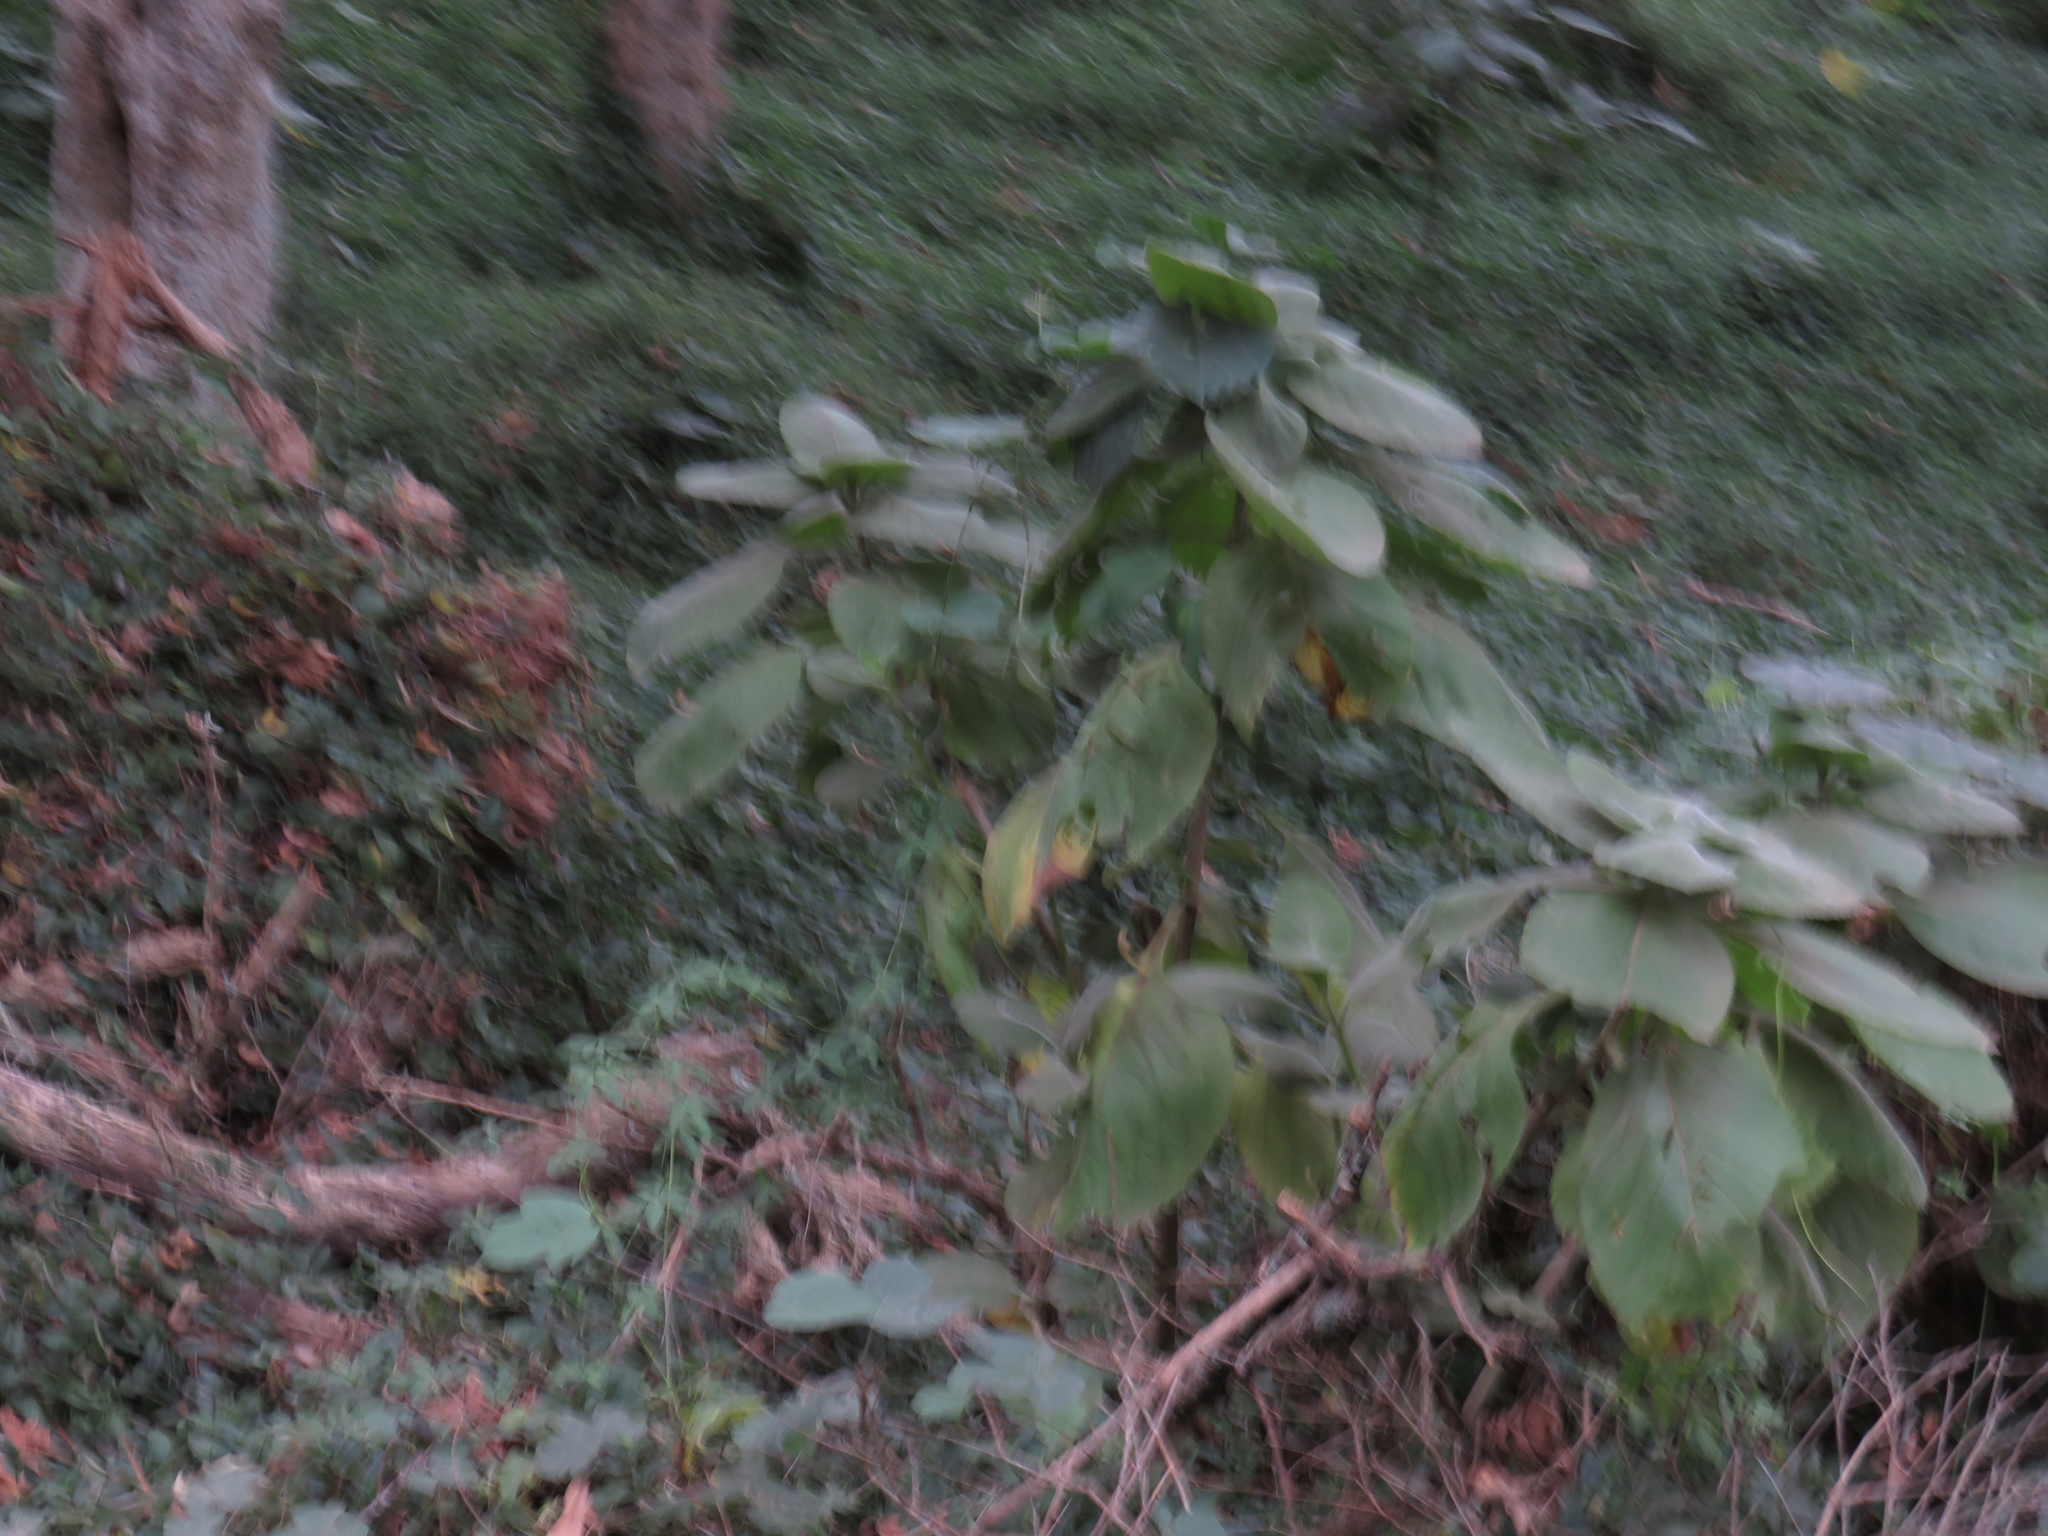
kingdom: Plantae
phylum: Tracheophyta
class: Magnoliopsida
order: Lamiales
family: Lamiaceae
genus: Coleus
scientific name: Coleus barbatus
